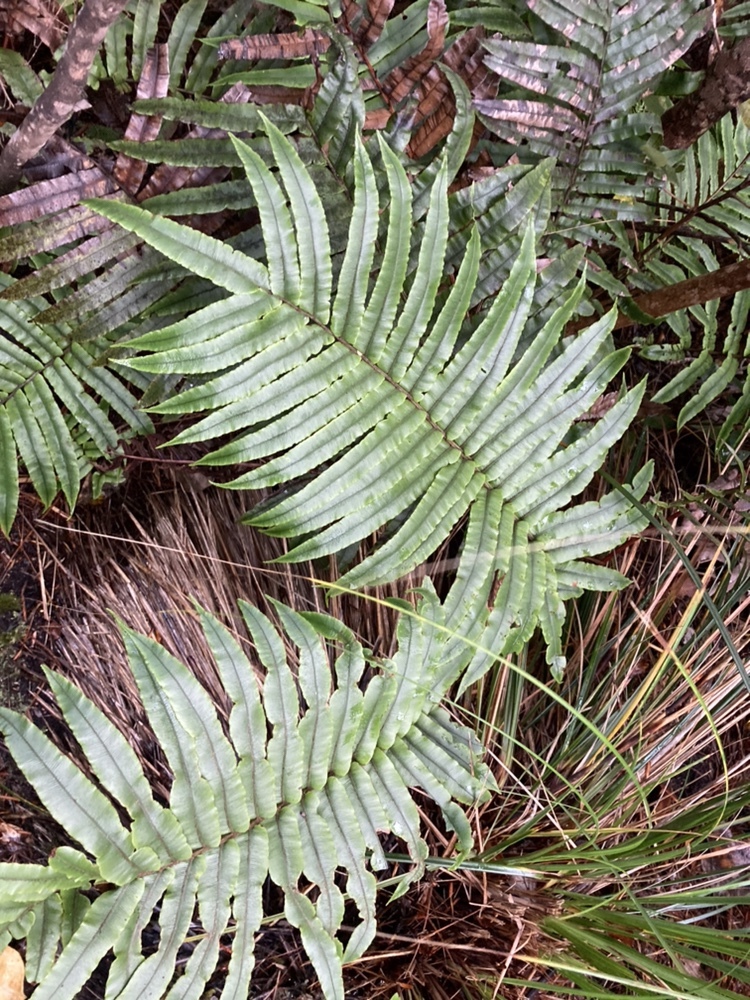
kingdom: Plantae
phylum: Tracheophyta
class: Polypodiopsida
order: Polypodiales
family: Blechnaceae
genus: Parablechnum
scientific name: Parablechnum procerum
